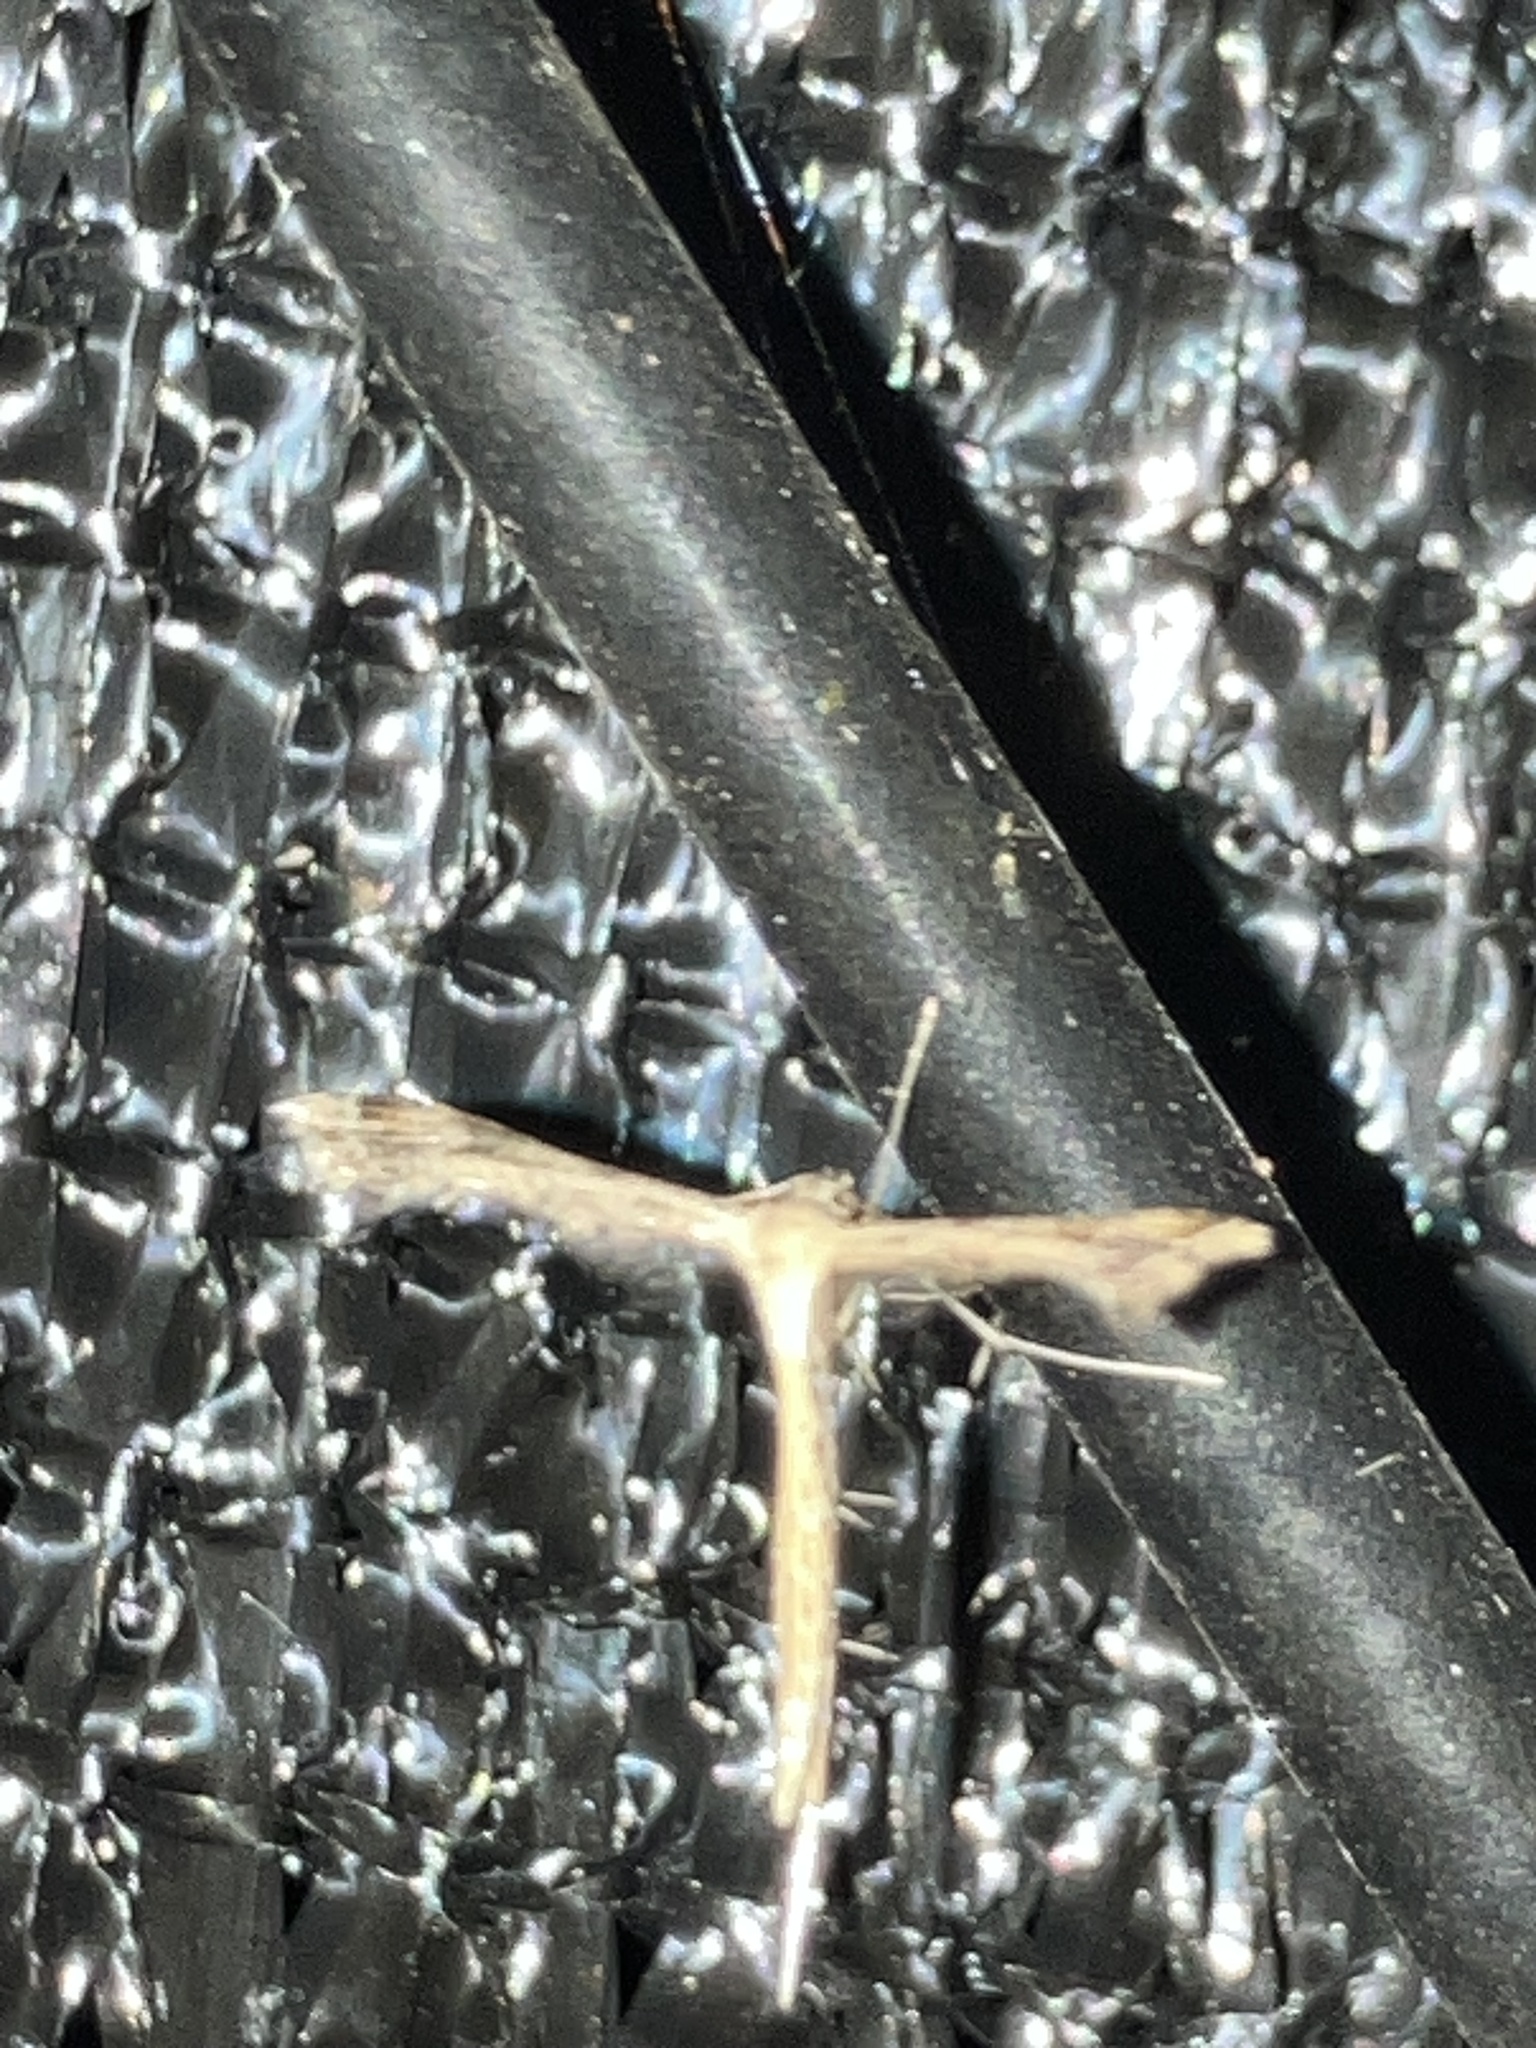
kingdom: Animalia
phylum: Arthropoda
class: Insecta
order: Lepidoptera
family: Pterophoridae
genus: Stenoptilodes
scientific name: Stenoptilodes
